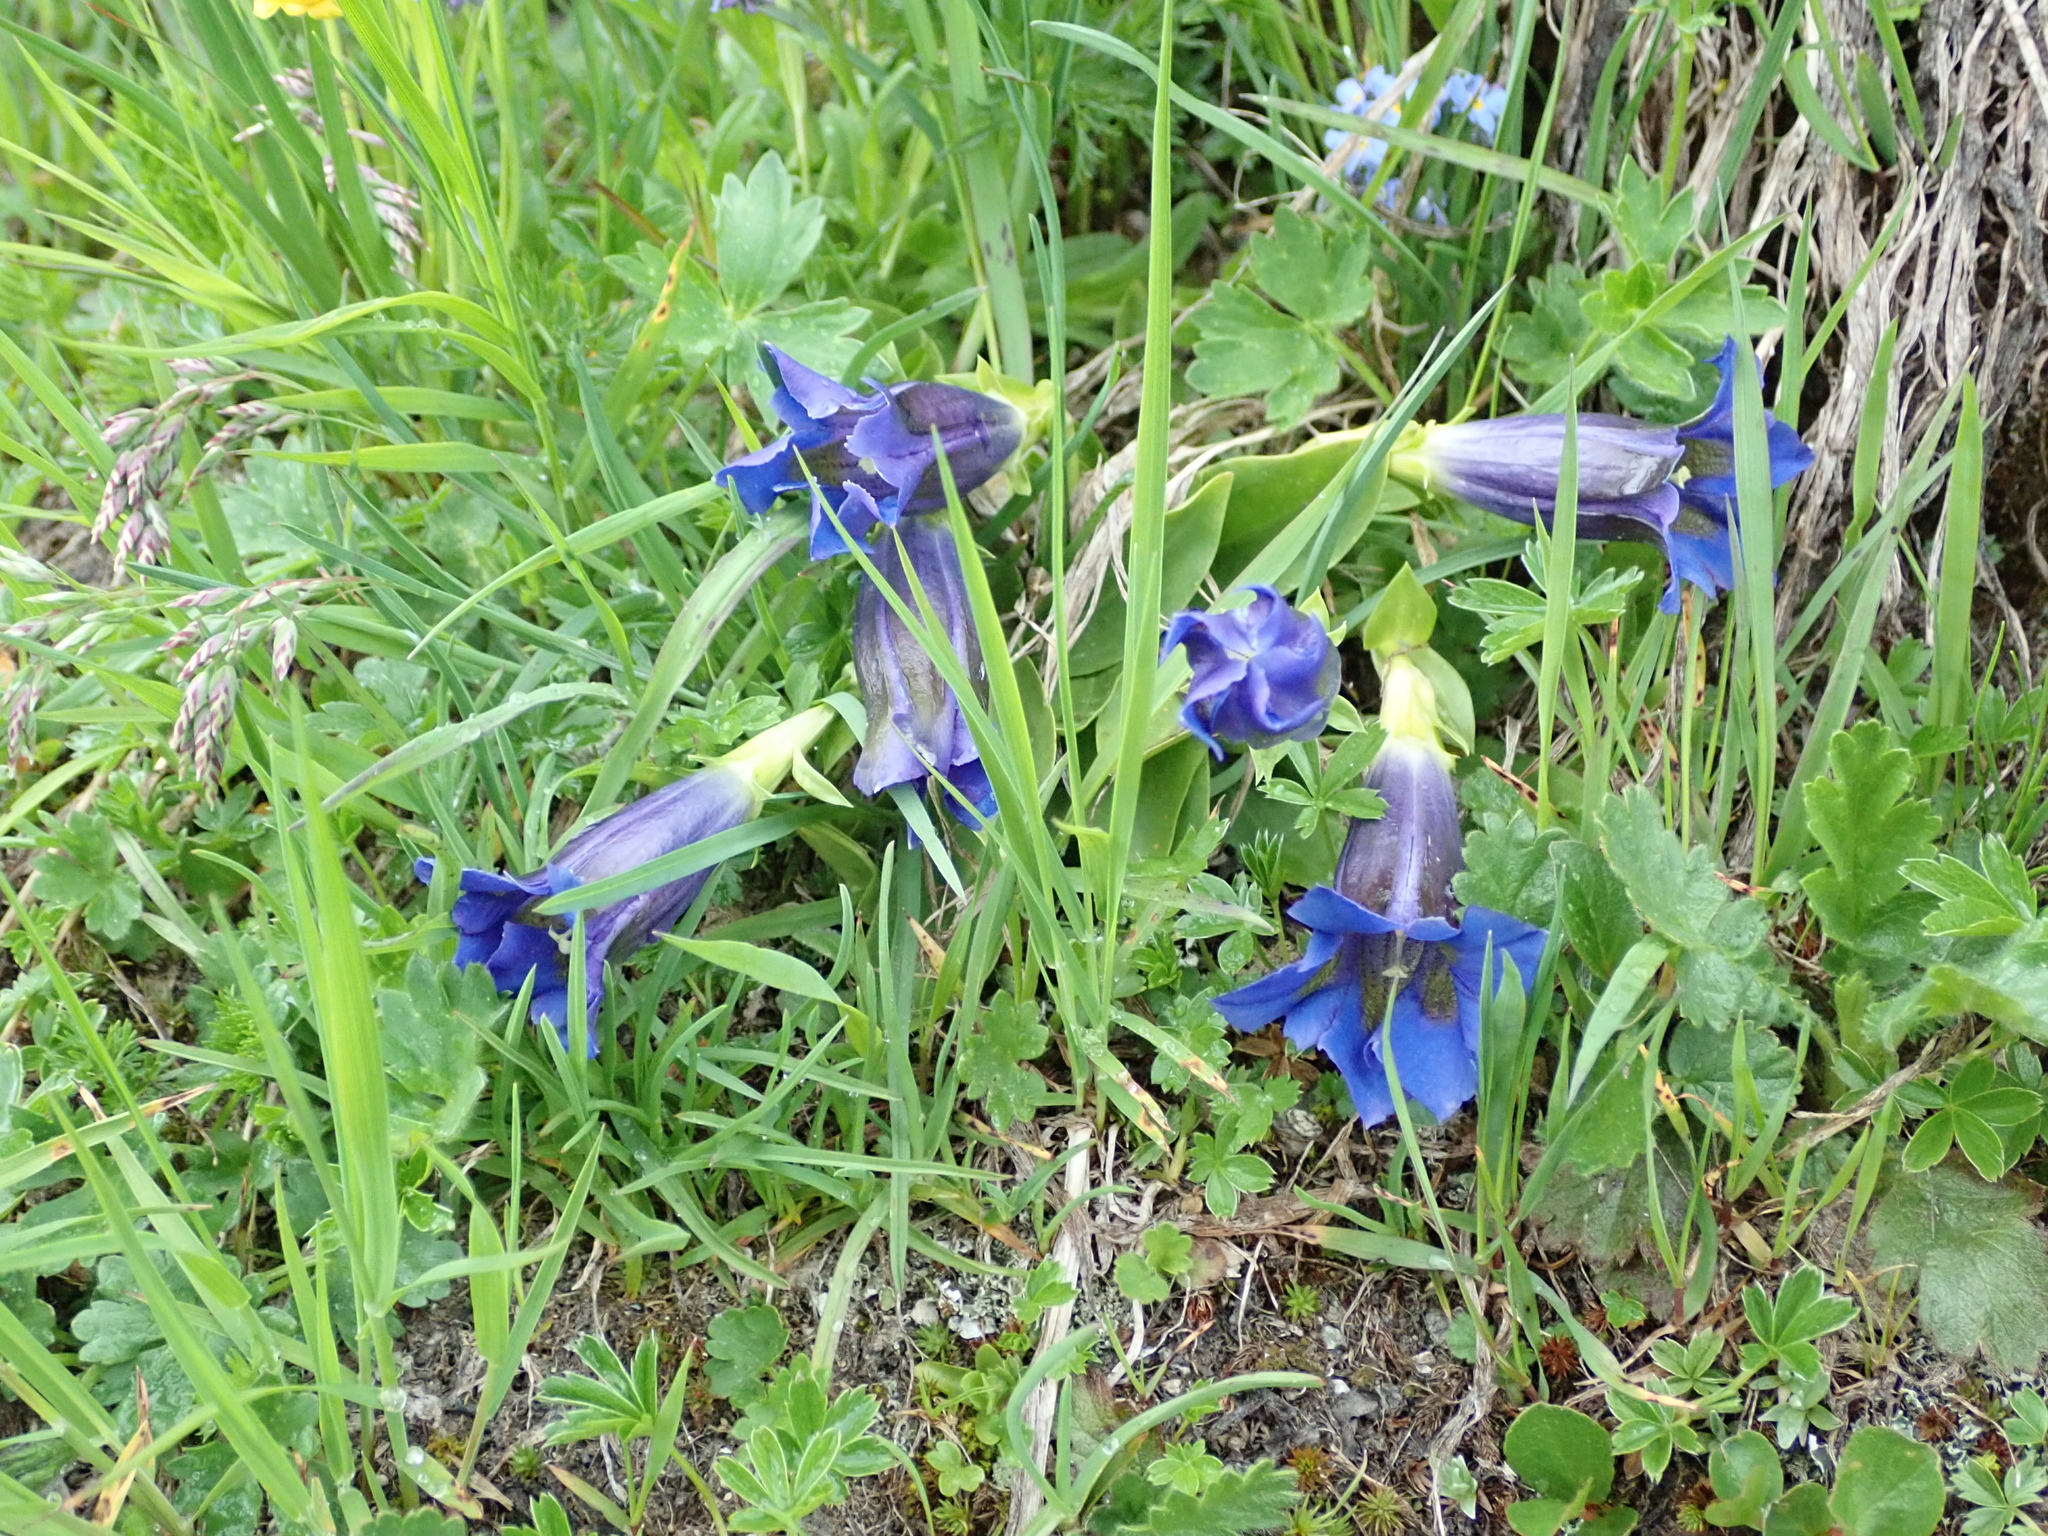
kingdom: Plantae
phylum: Tracheophyta
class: Magnoliopsida
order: Gentianales
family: Gentianaceae
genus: Gentiana
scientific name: Gentiana acaulis
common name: Trumpet gentian
